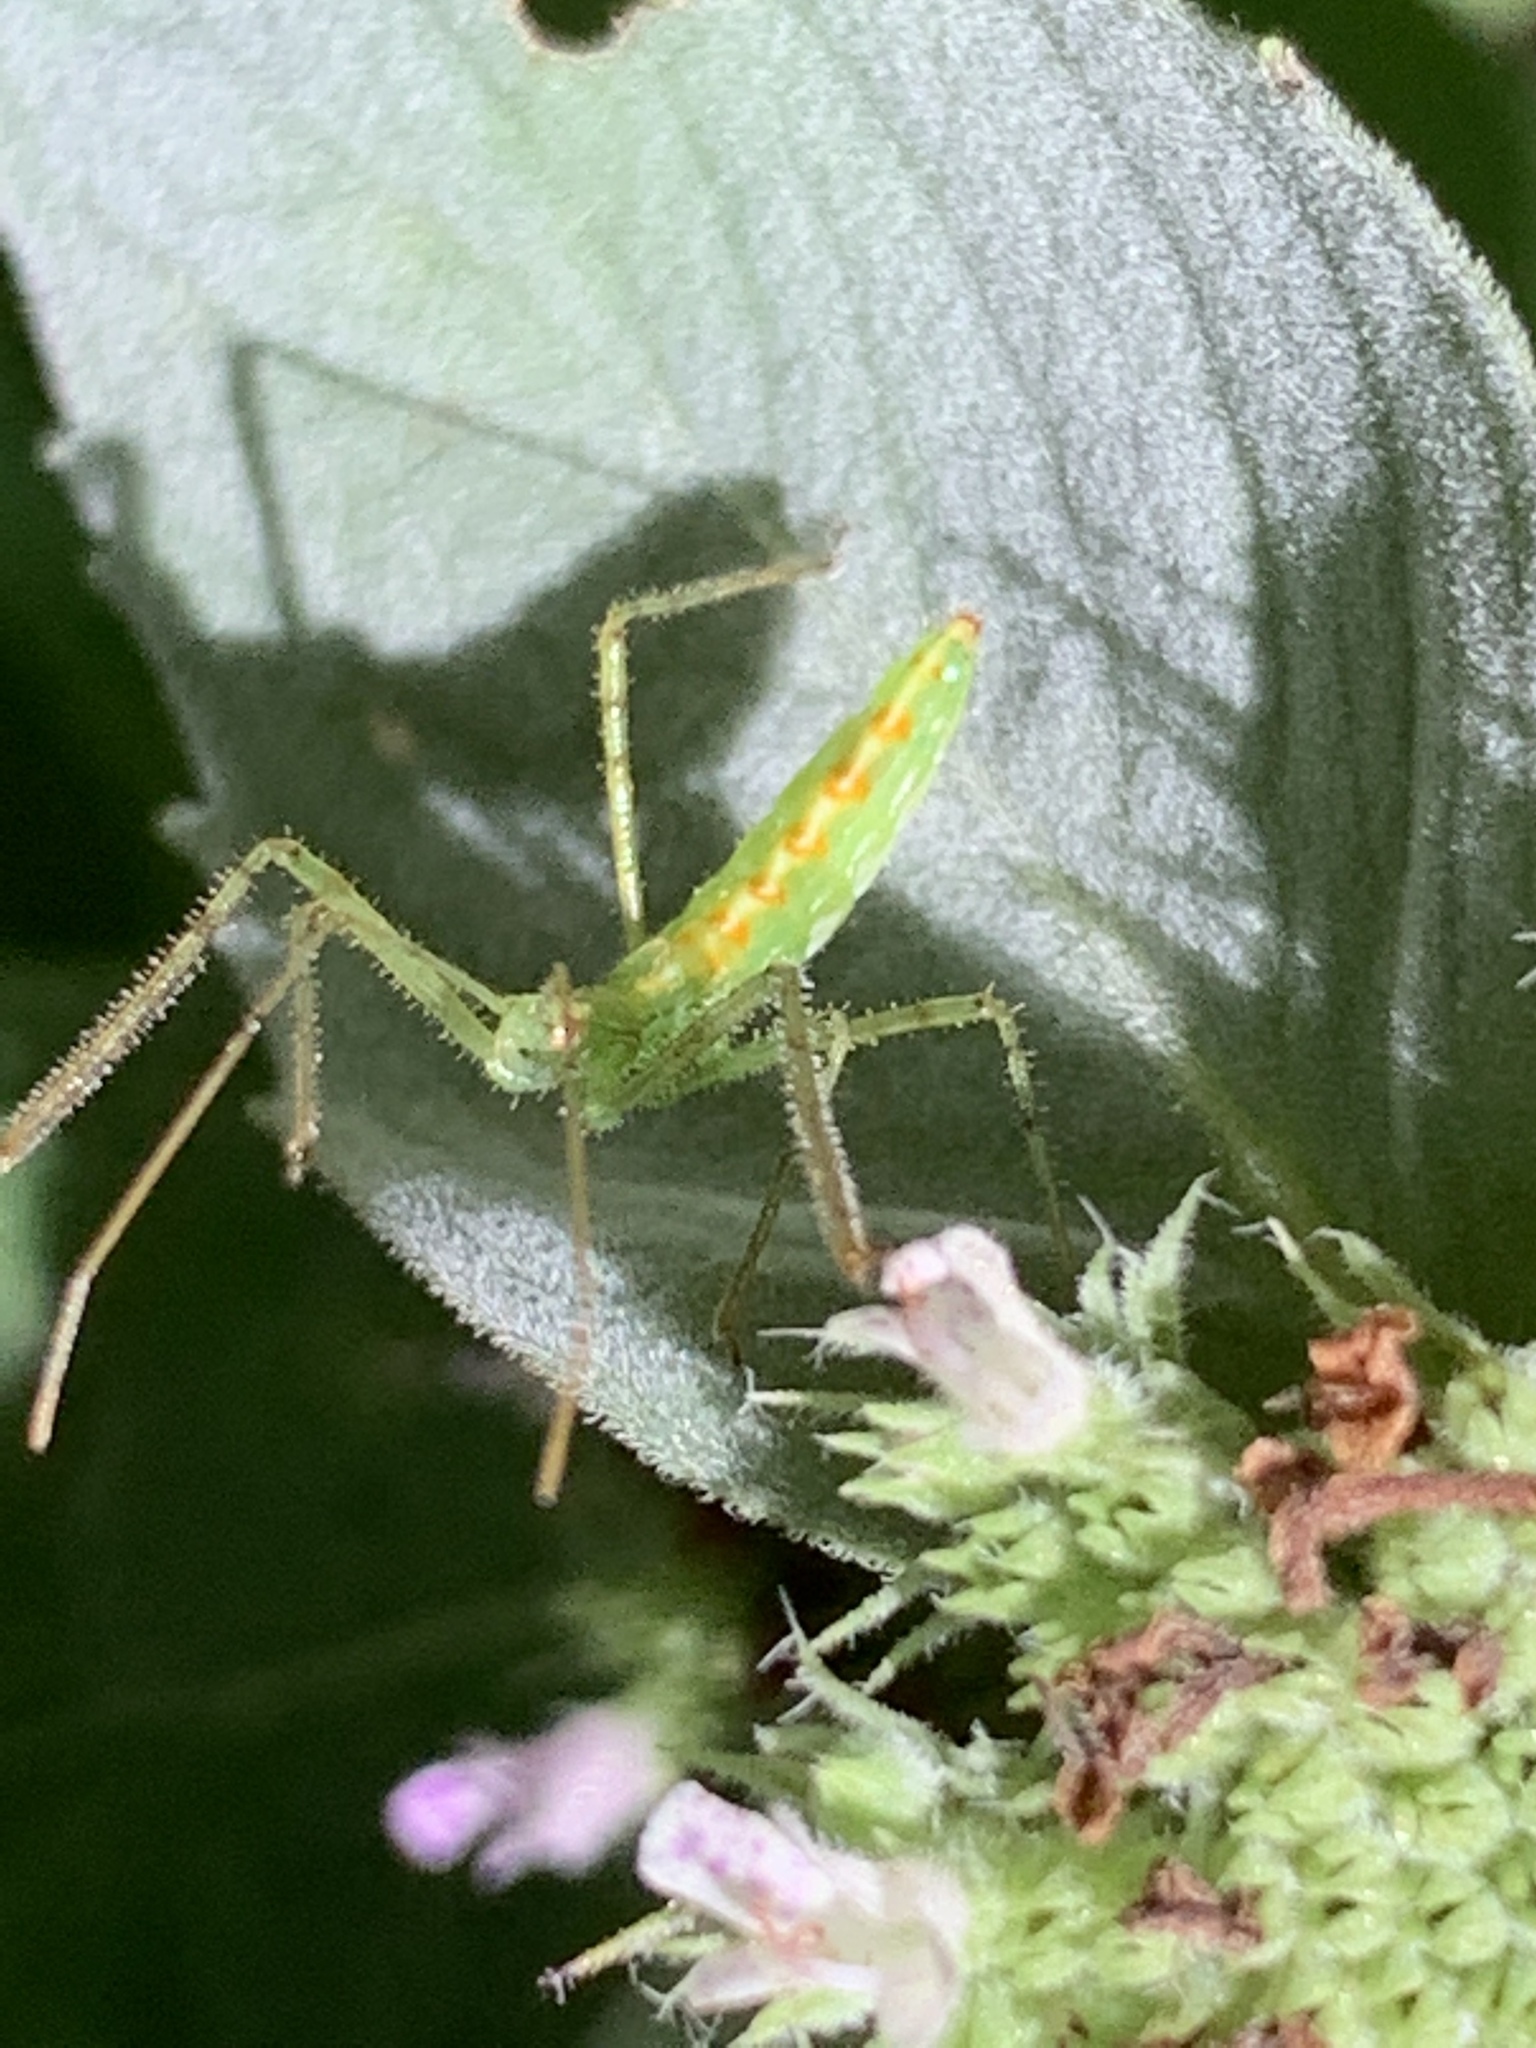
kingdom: Animalia
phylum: Arthropoda
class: Insecta
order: Hemiptera
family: Reduviidae
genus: Zelus
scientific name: Zelus luridus
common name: Pale green assassin bug
